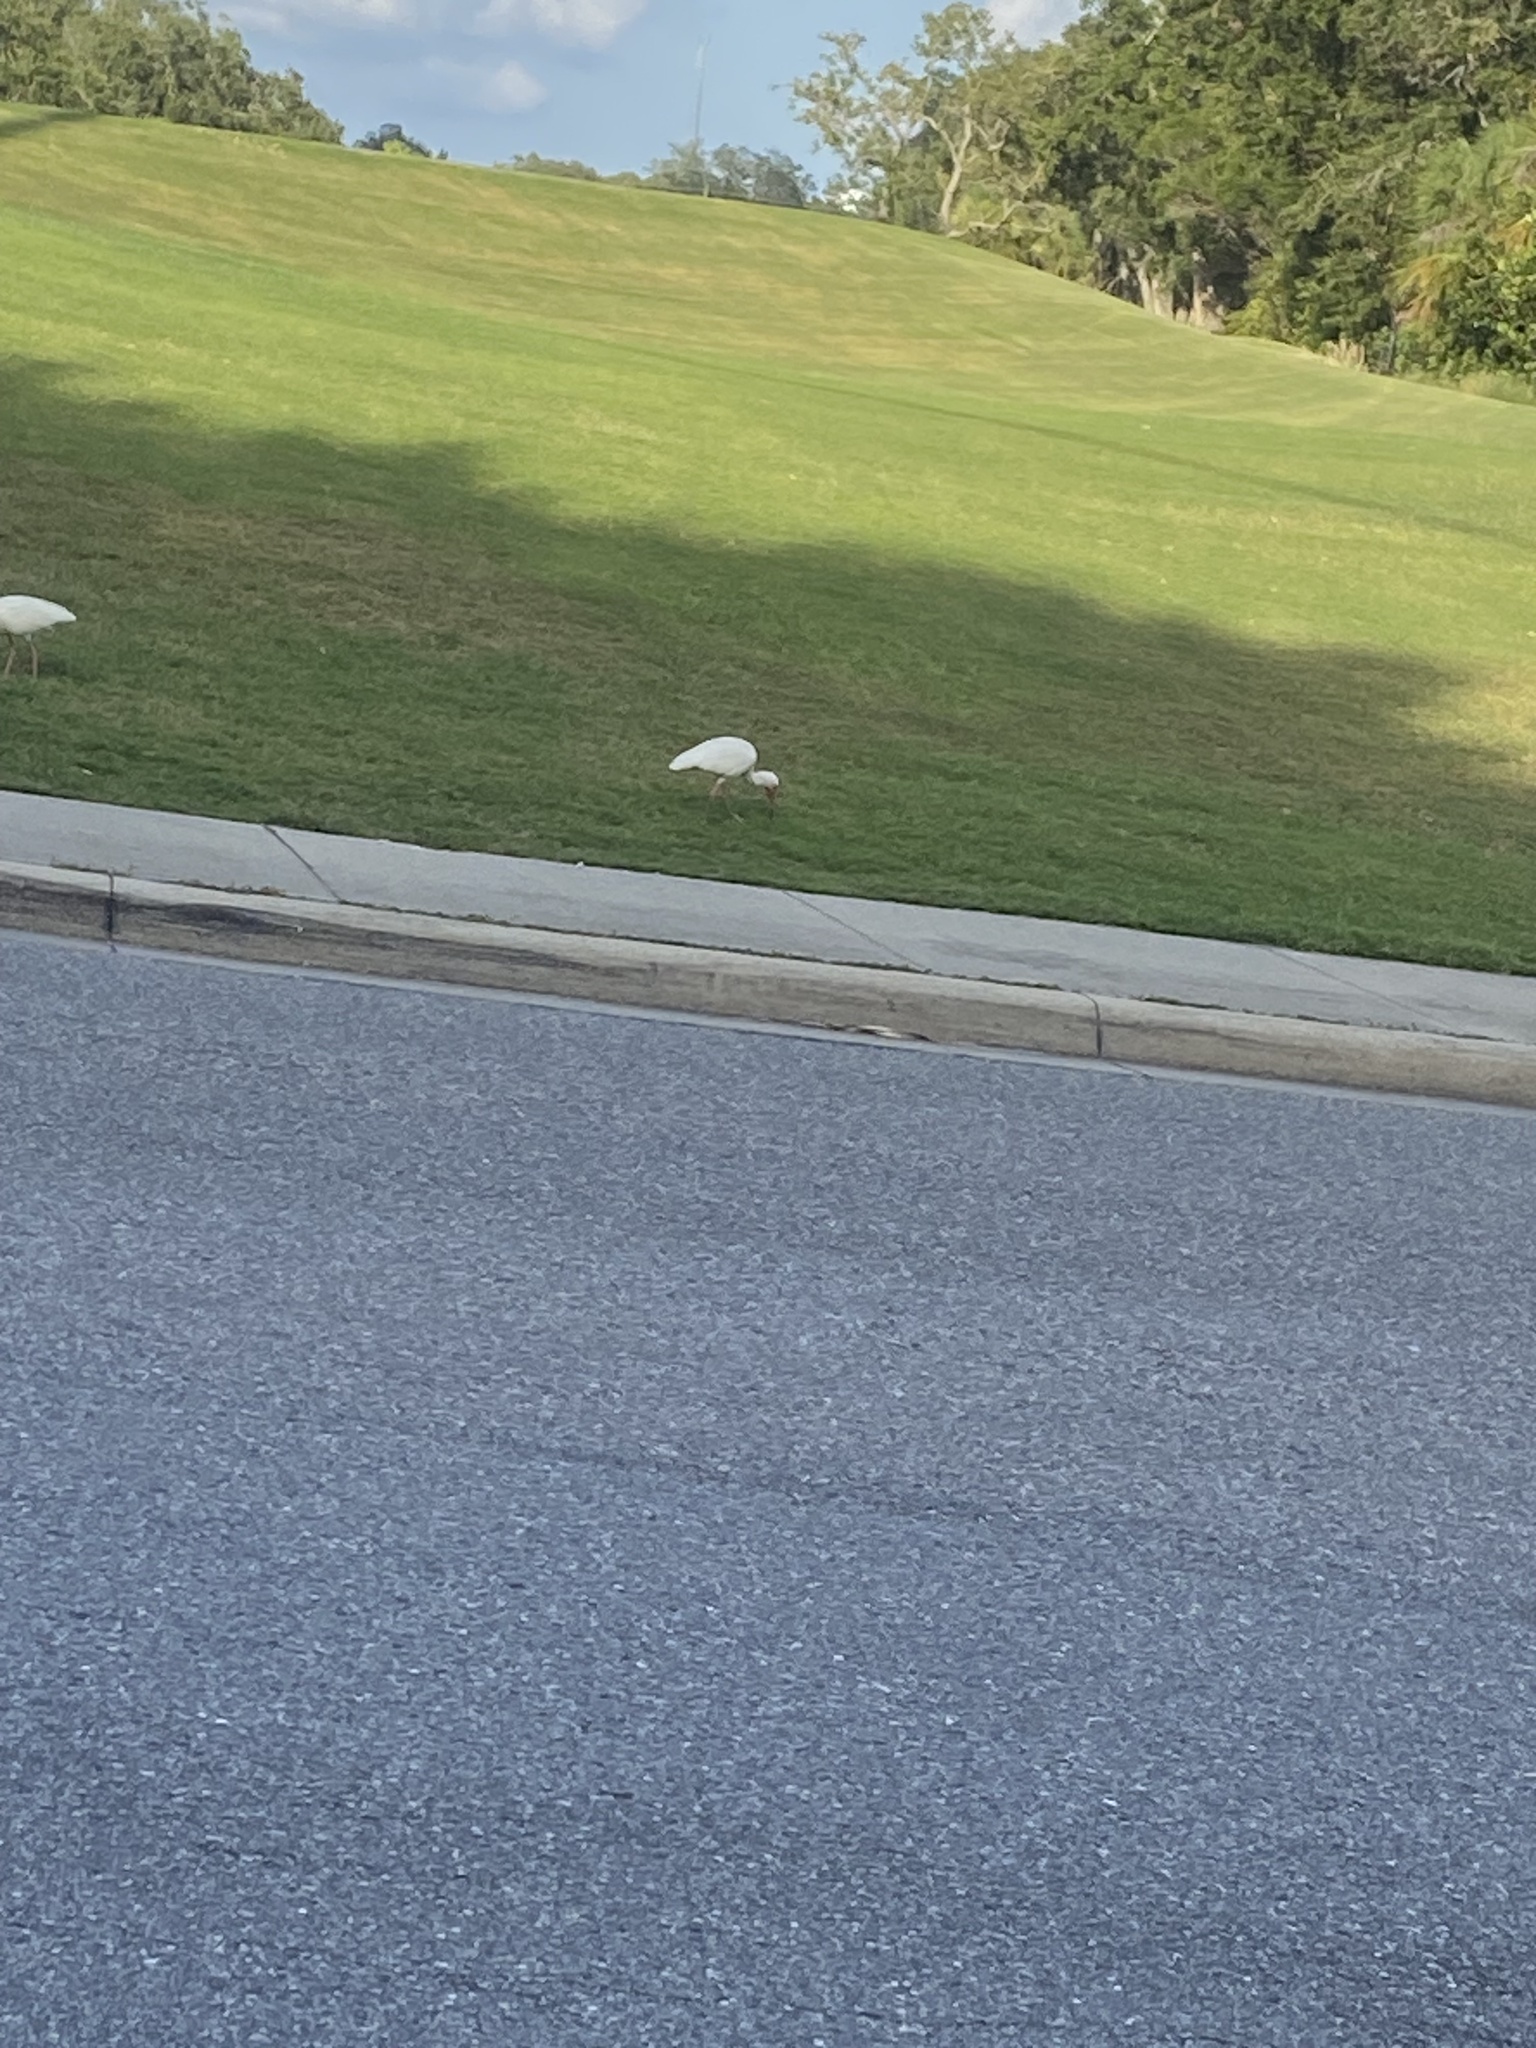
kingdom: Animalia
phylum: Chordata
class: Aves
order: Pelecaniformes
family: Threskiornithidae
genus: Eudocimus
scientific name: Eudocimus albus
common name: White ibis
